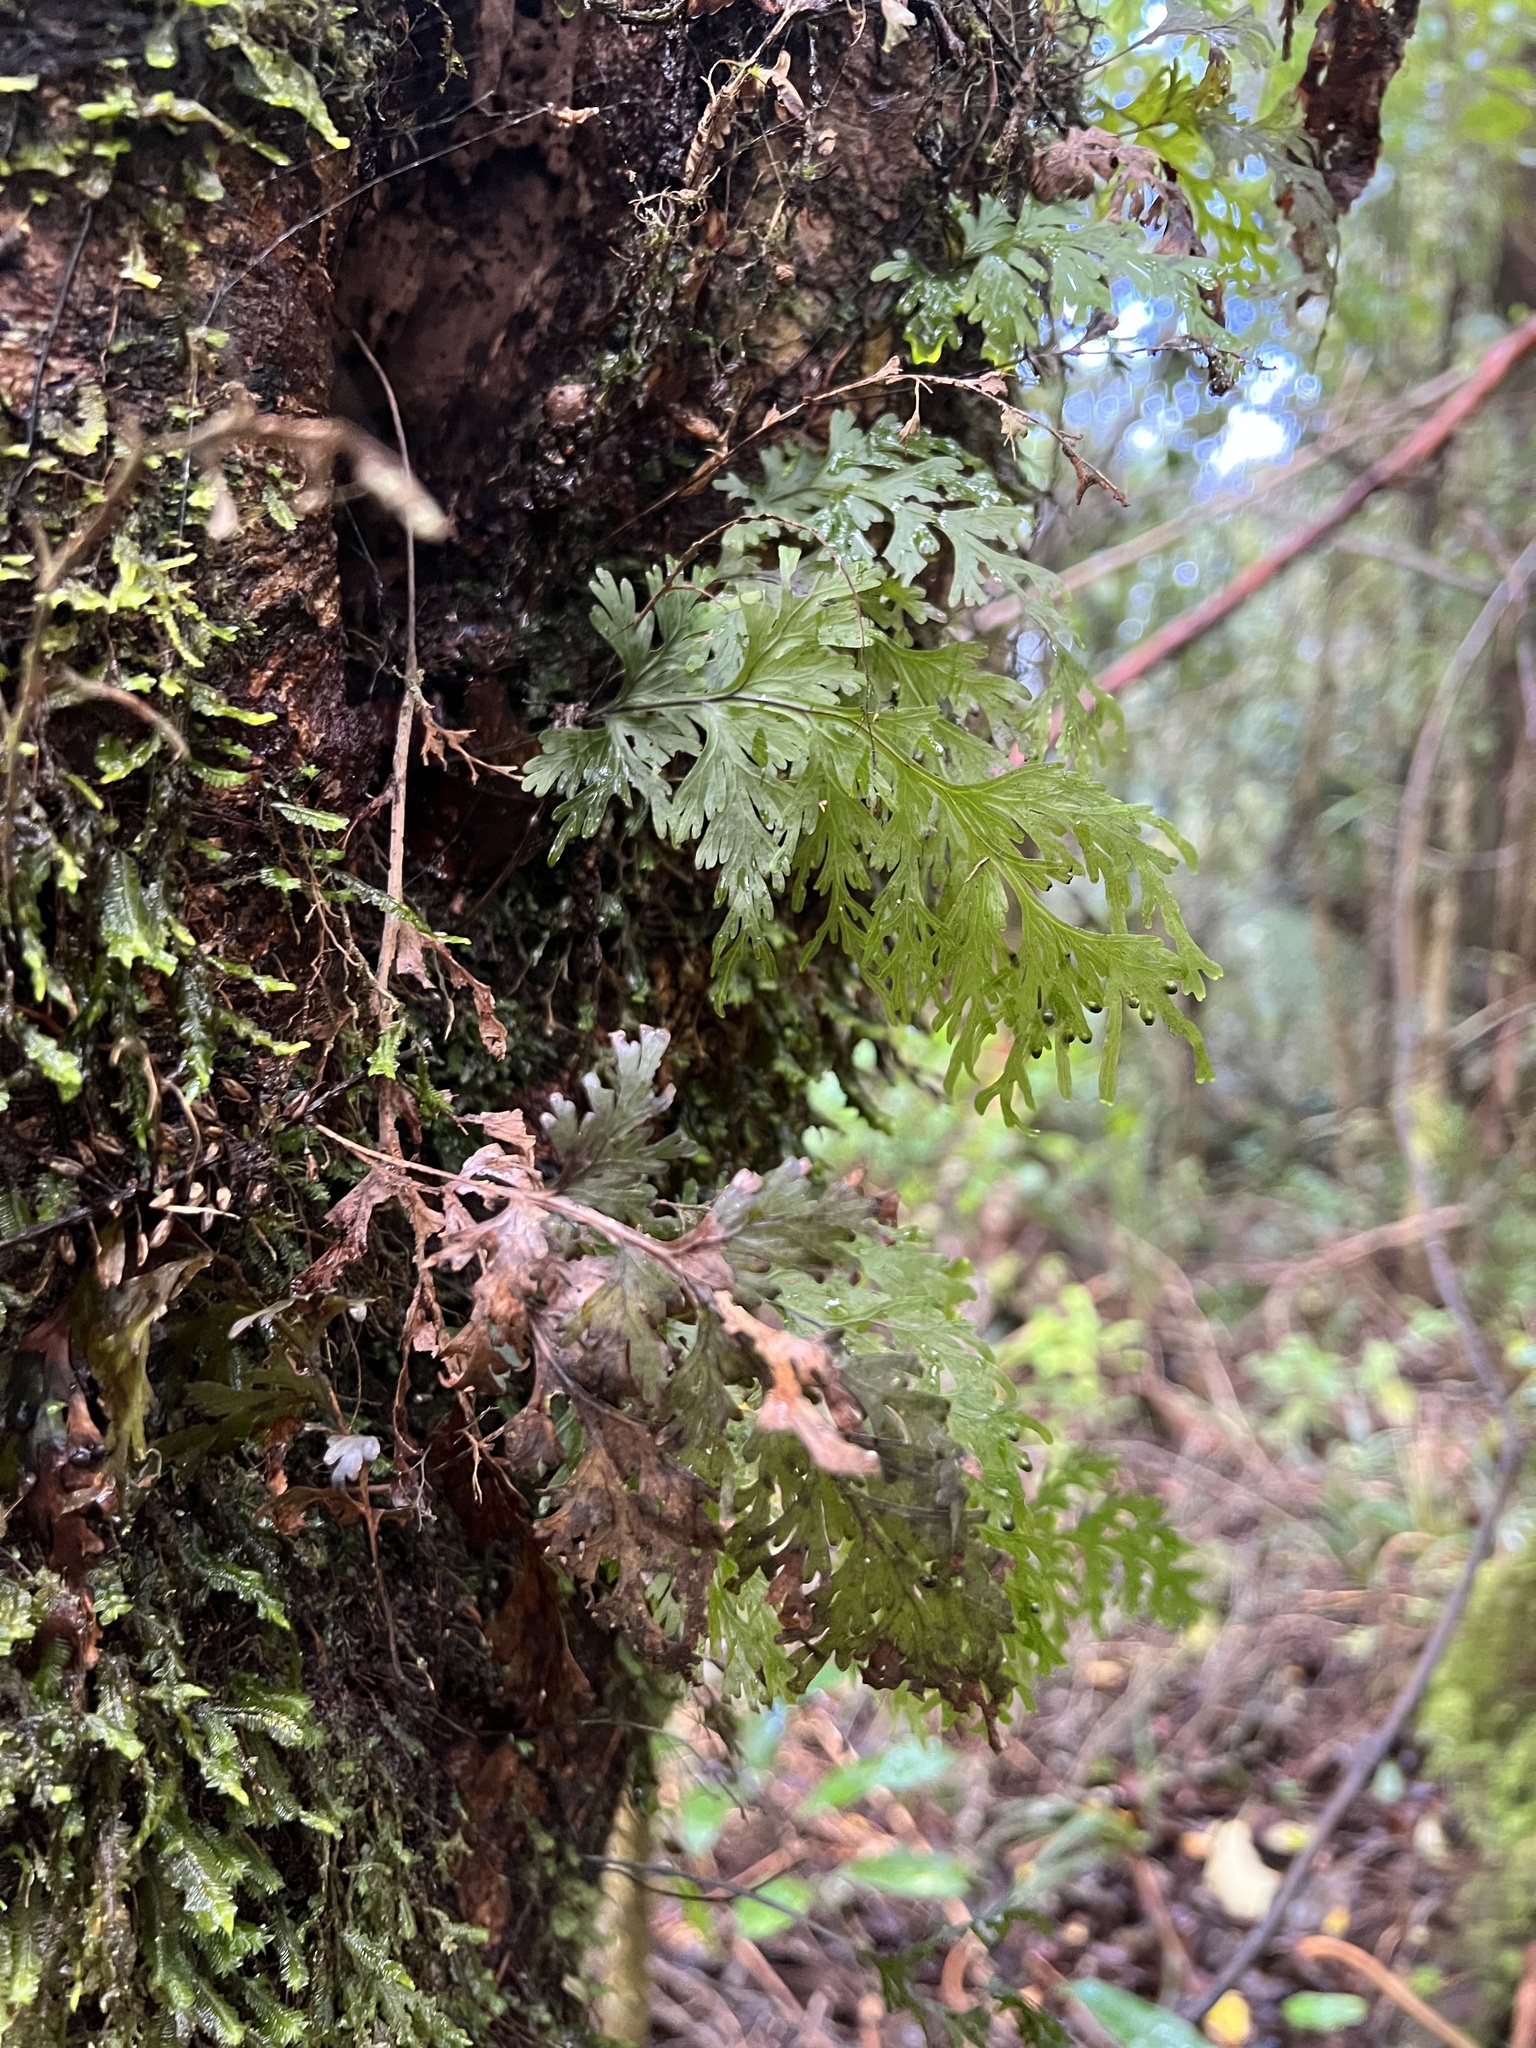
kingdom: Plantae
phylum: Tracheophyta
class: Polypodiopsida
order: Hymenophyllales
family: Hymenophyllaceae
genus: Hymenophyllum
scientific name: Hymenophyllum dilatatum
